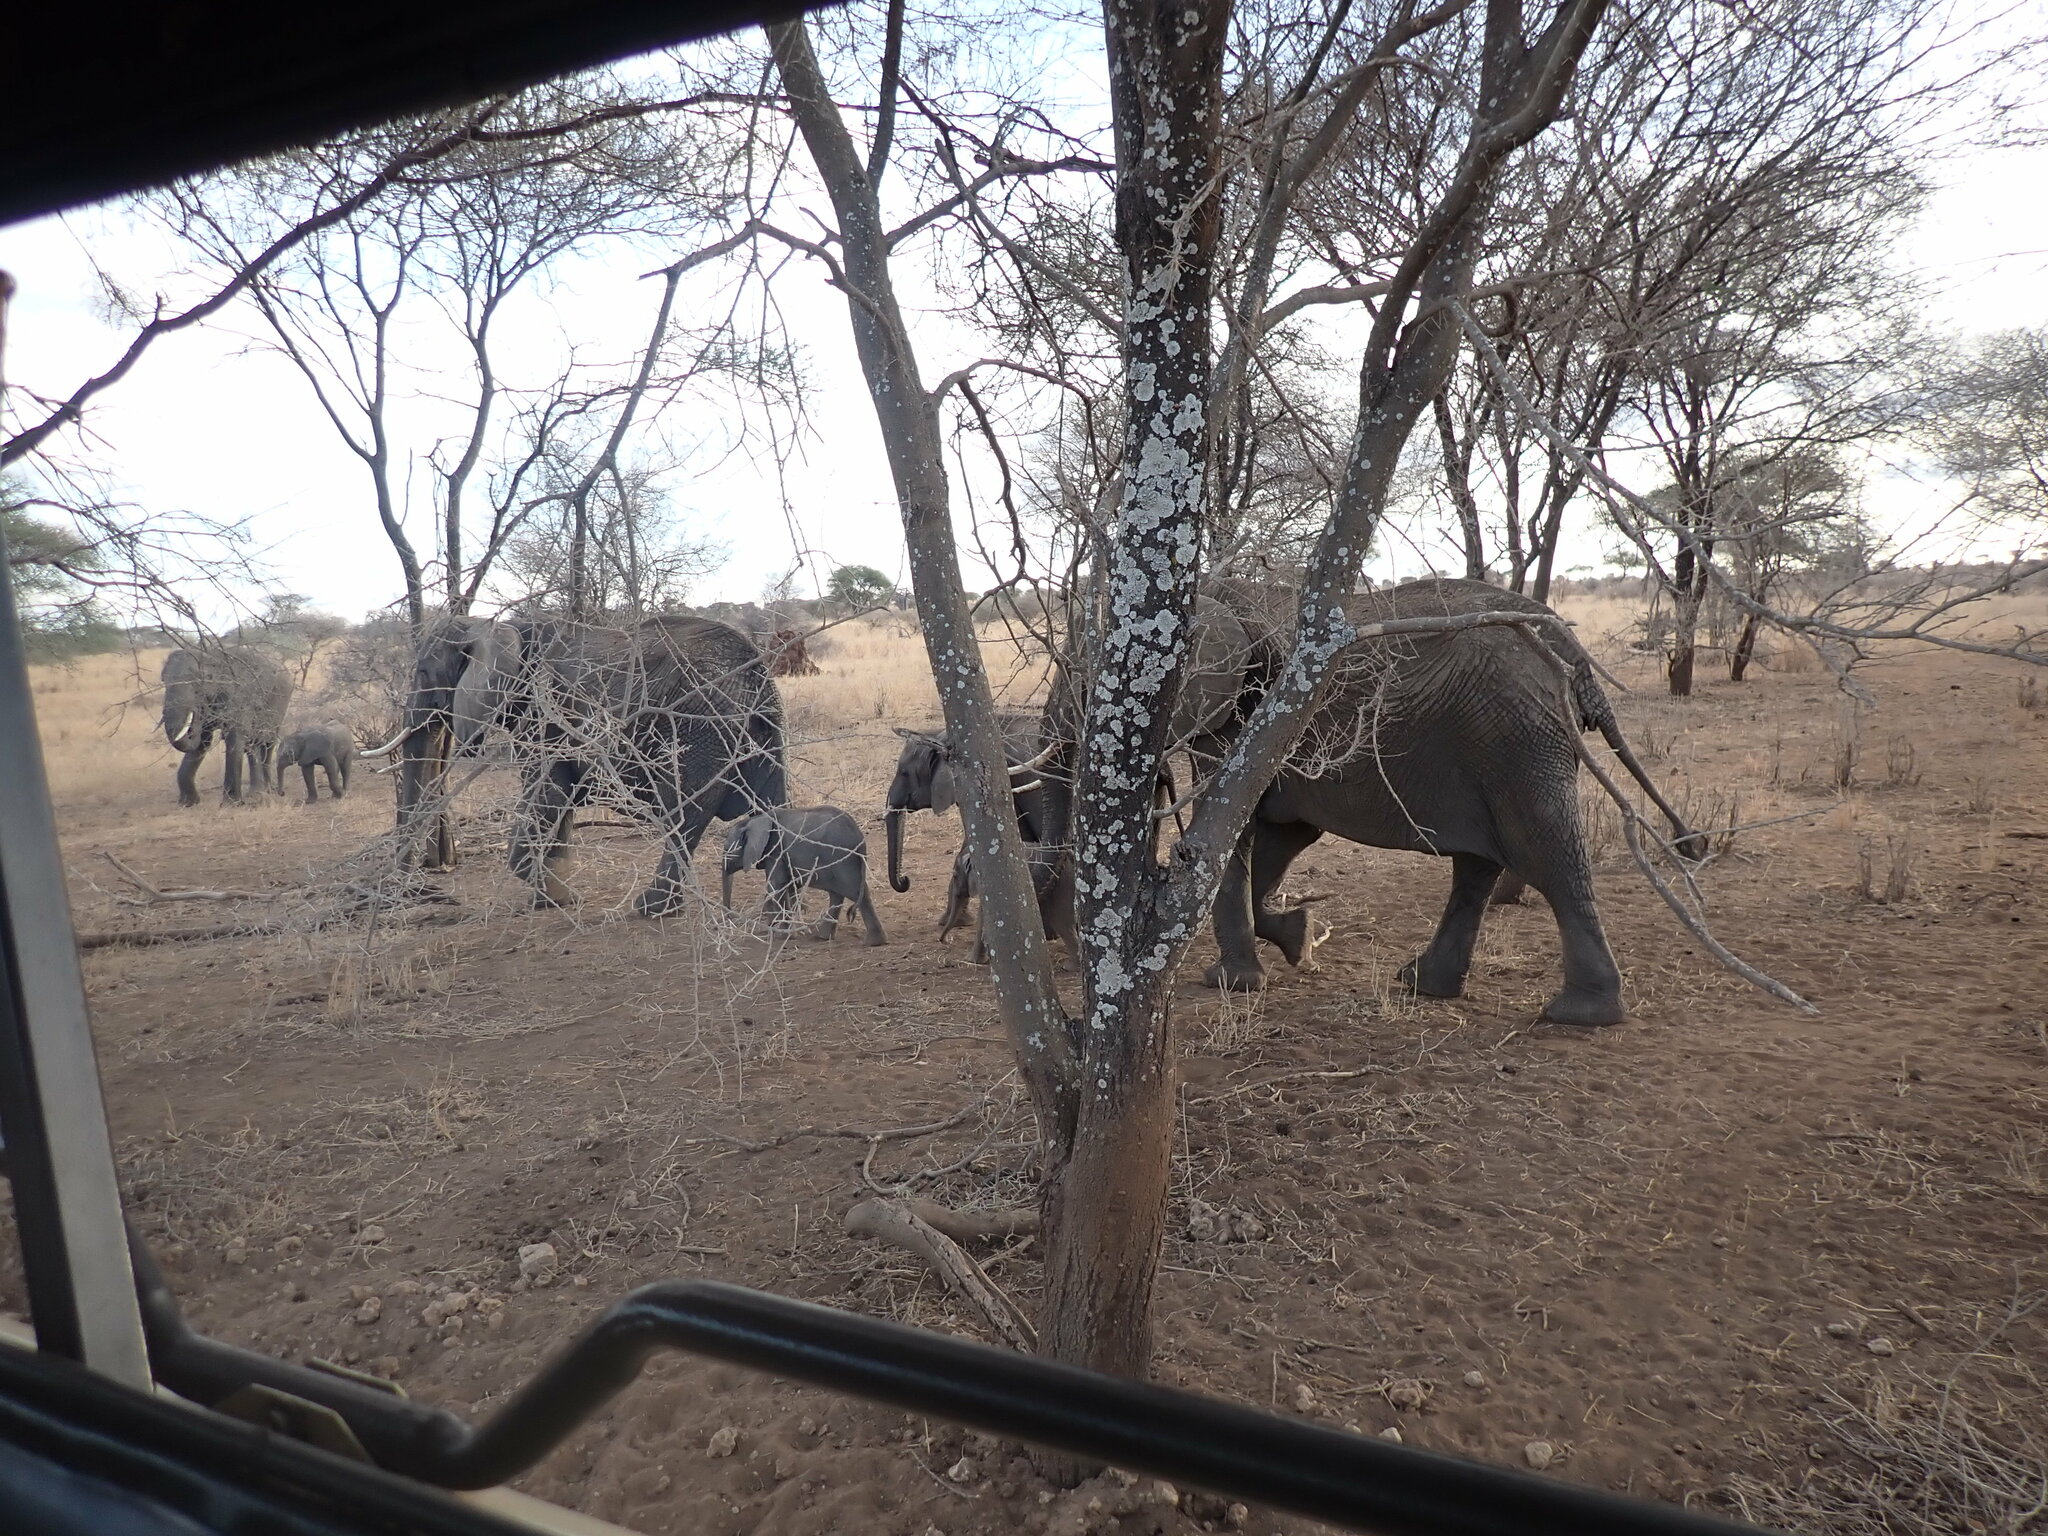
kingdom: Animalia
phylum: Chordata
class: Mammalia
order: Proboscidea
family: Elephantidae
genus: Loxodonta
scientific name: Loxodonta africana
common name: African elephant
